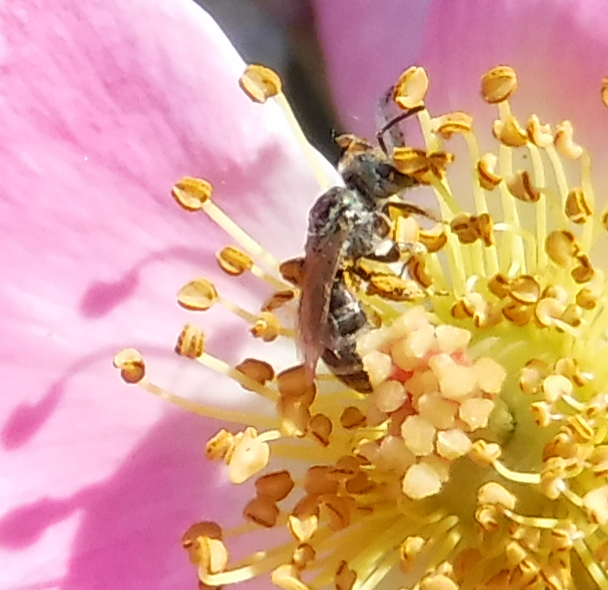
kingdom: Animalia
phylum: Arthropoda
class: Insecta
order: Hymenoptera
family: Halictidae
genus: Lasioglossum
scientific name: Lasioglossum
